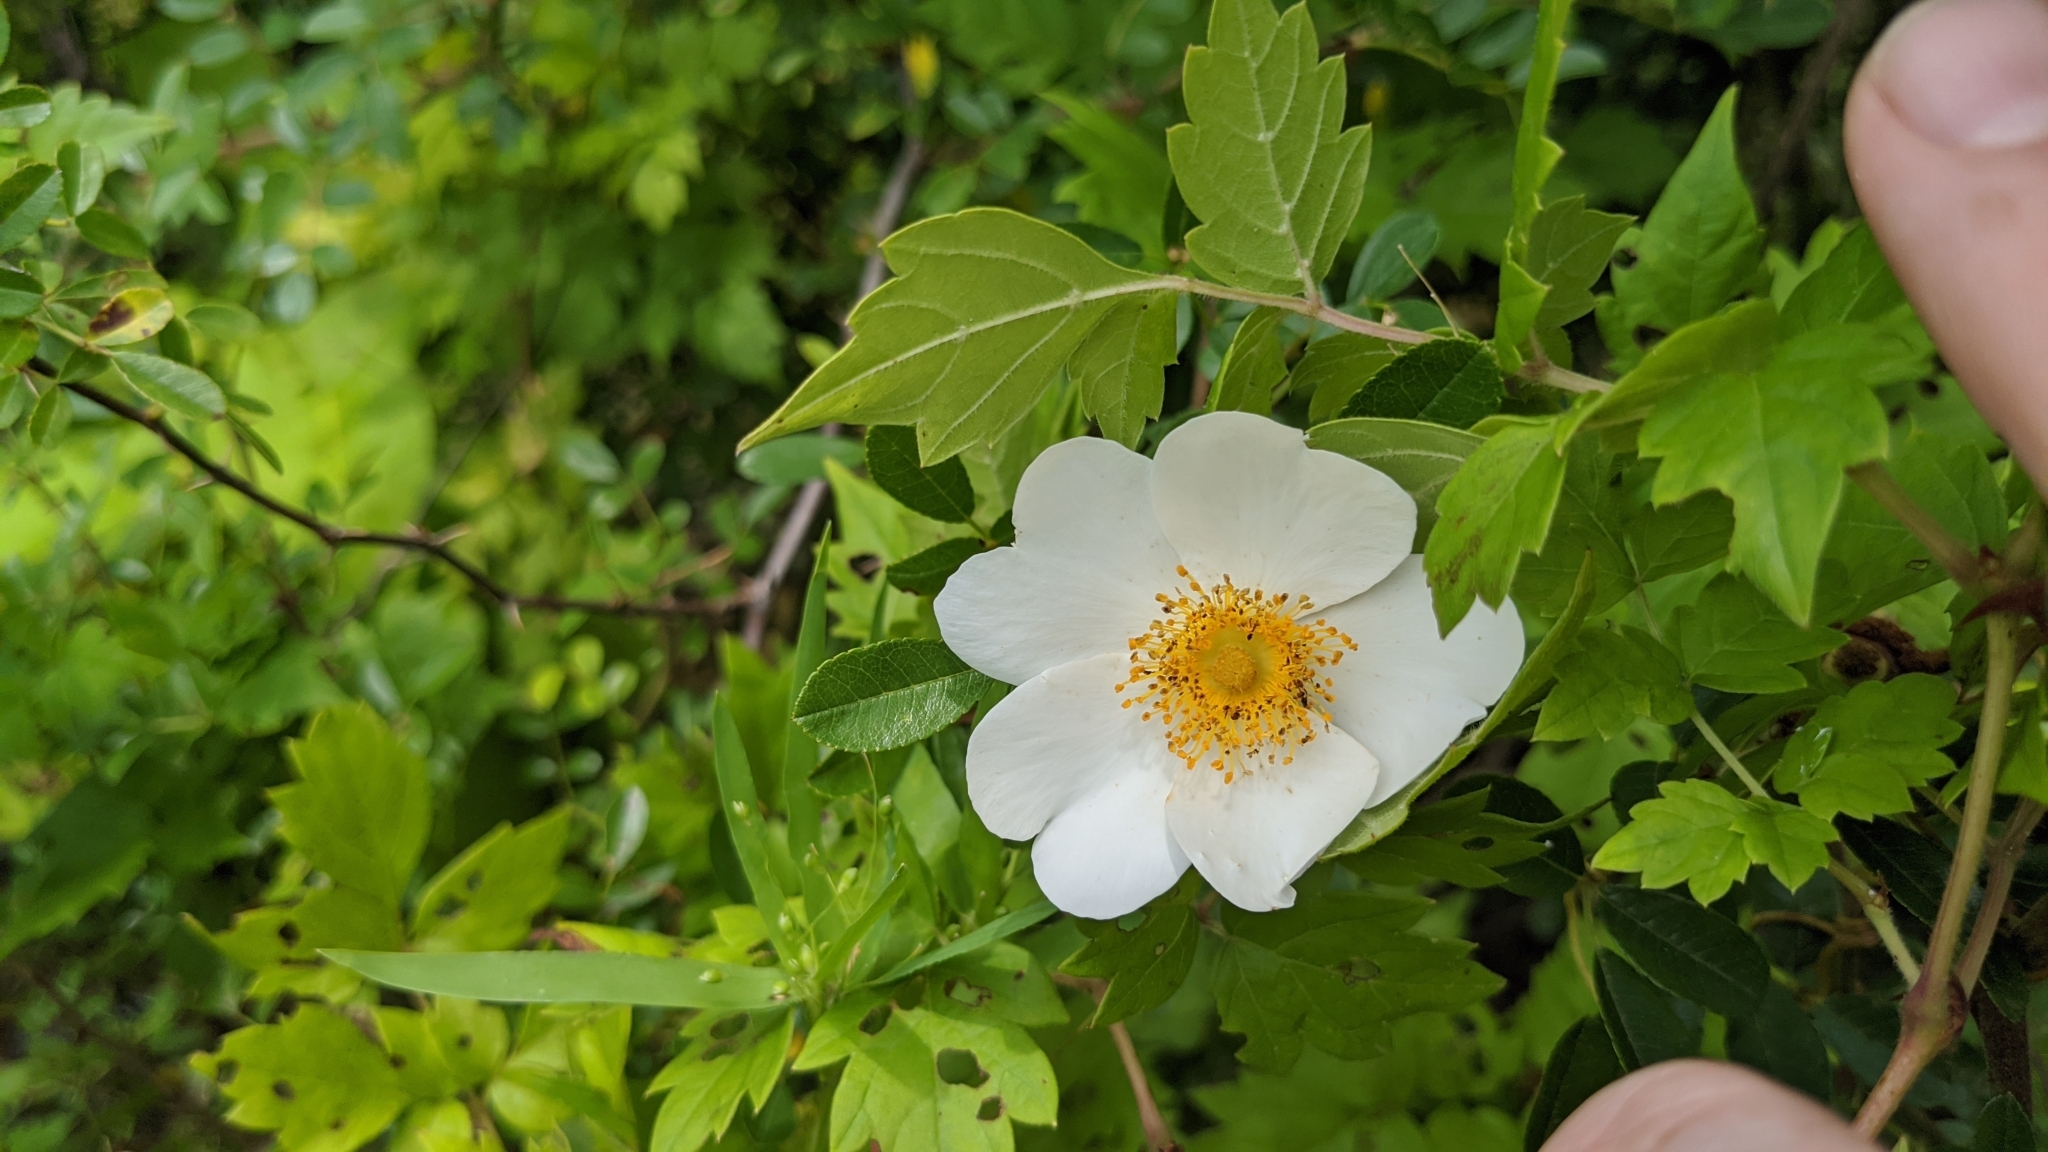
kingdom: Plantae
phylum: Tracheophyta
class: Magnoliopsida
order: Rosales
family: Rosaceae
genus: Rosa
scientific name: Rosa bracteata
